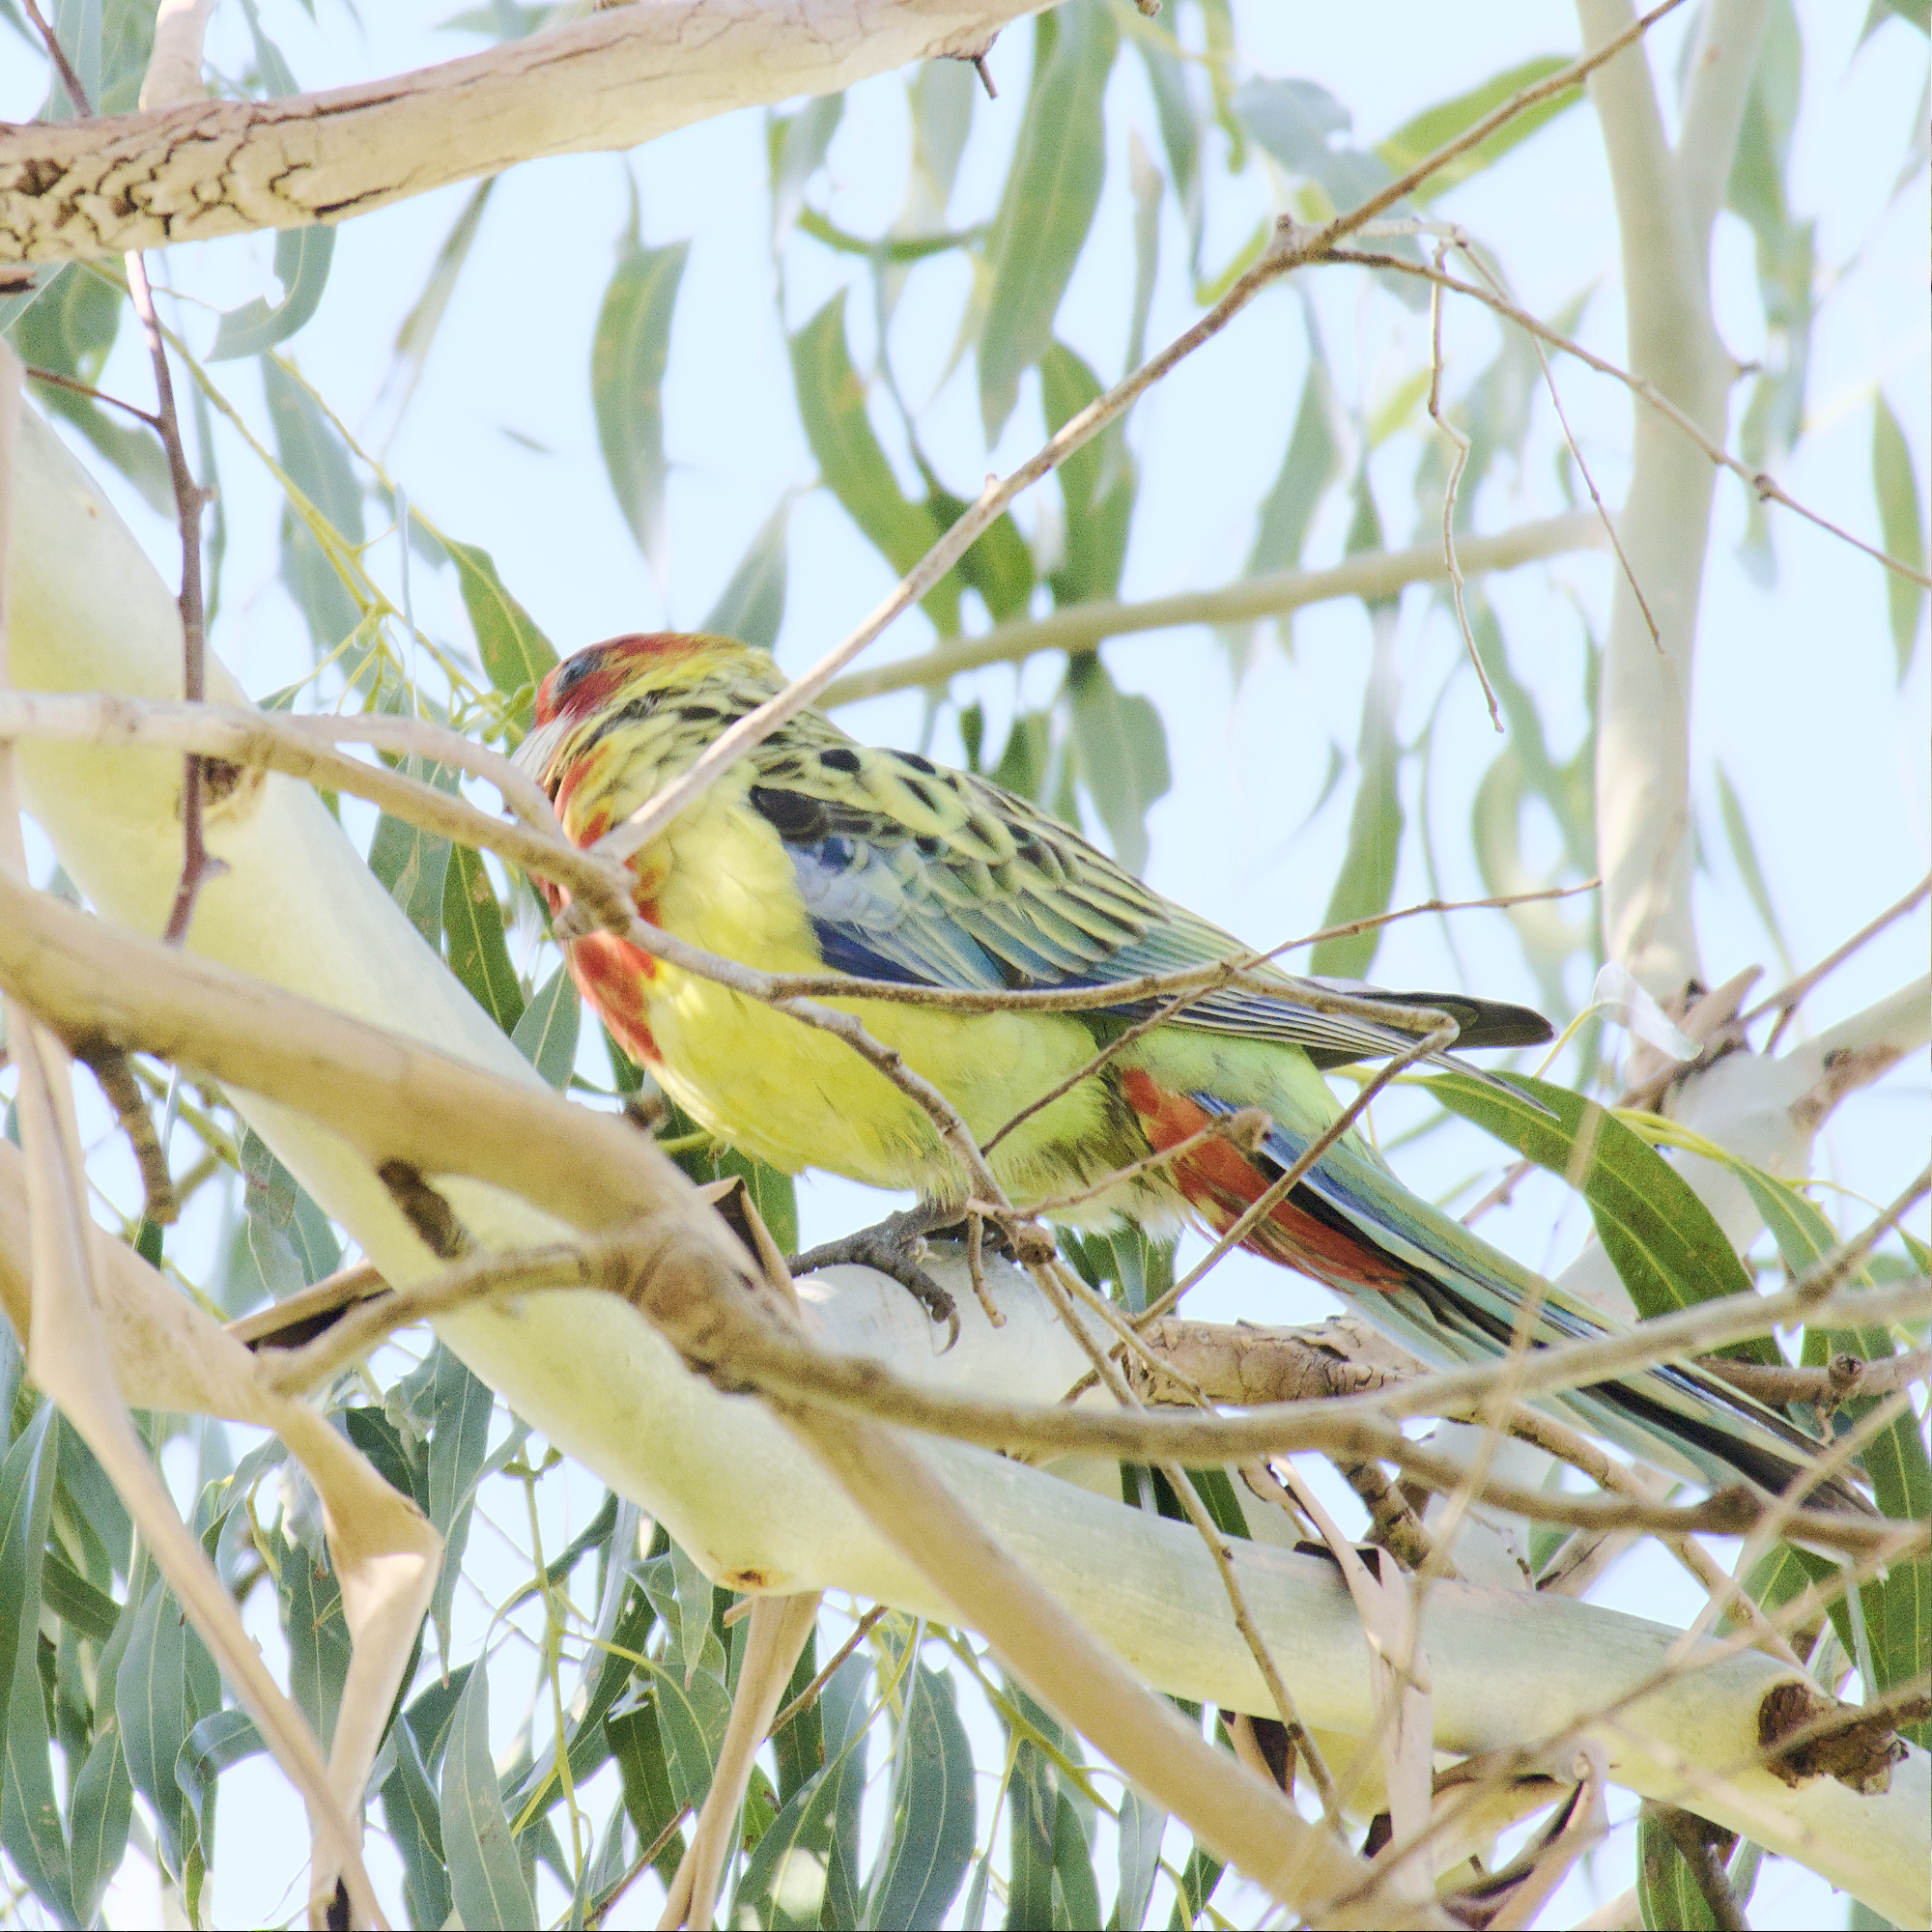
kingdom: Animalia
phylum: Chordata
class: Aves
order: Psittaciformes
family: Psittacidae
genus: Platycercus
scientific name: Platycercus eximius
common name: Eastern rosella
